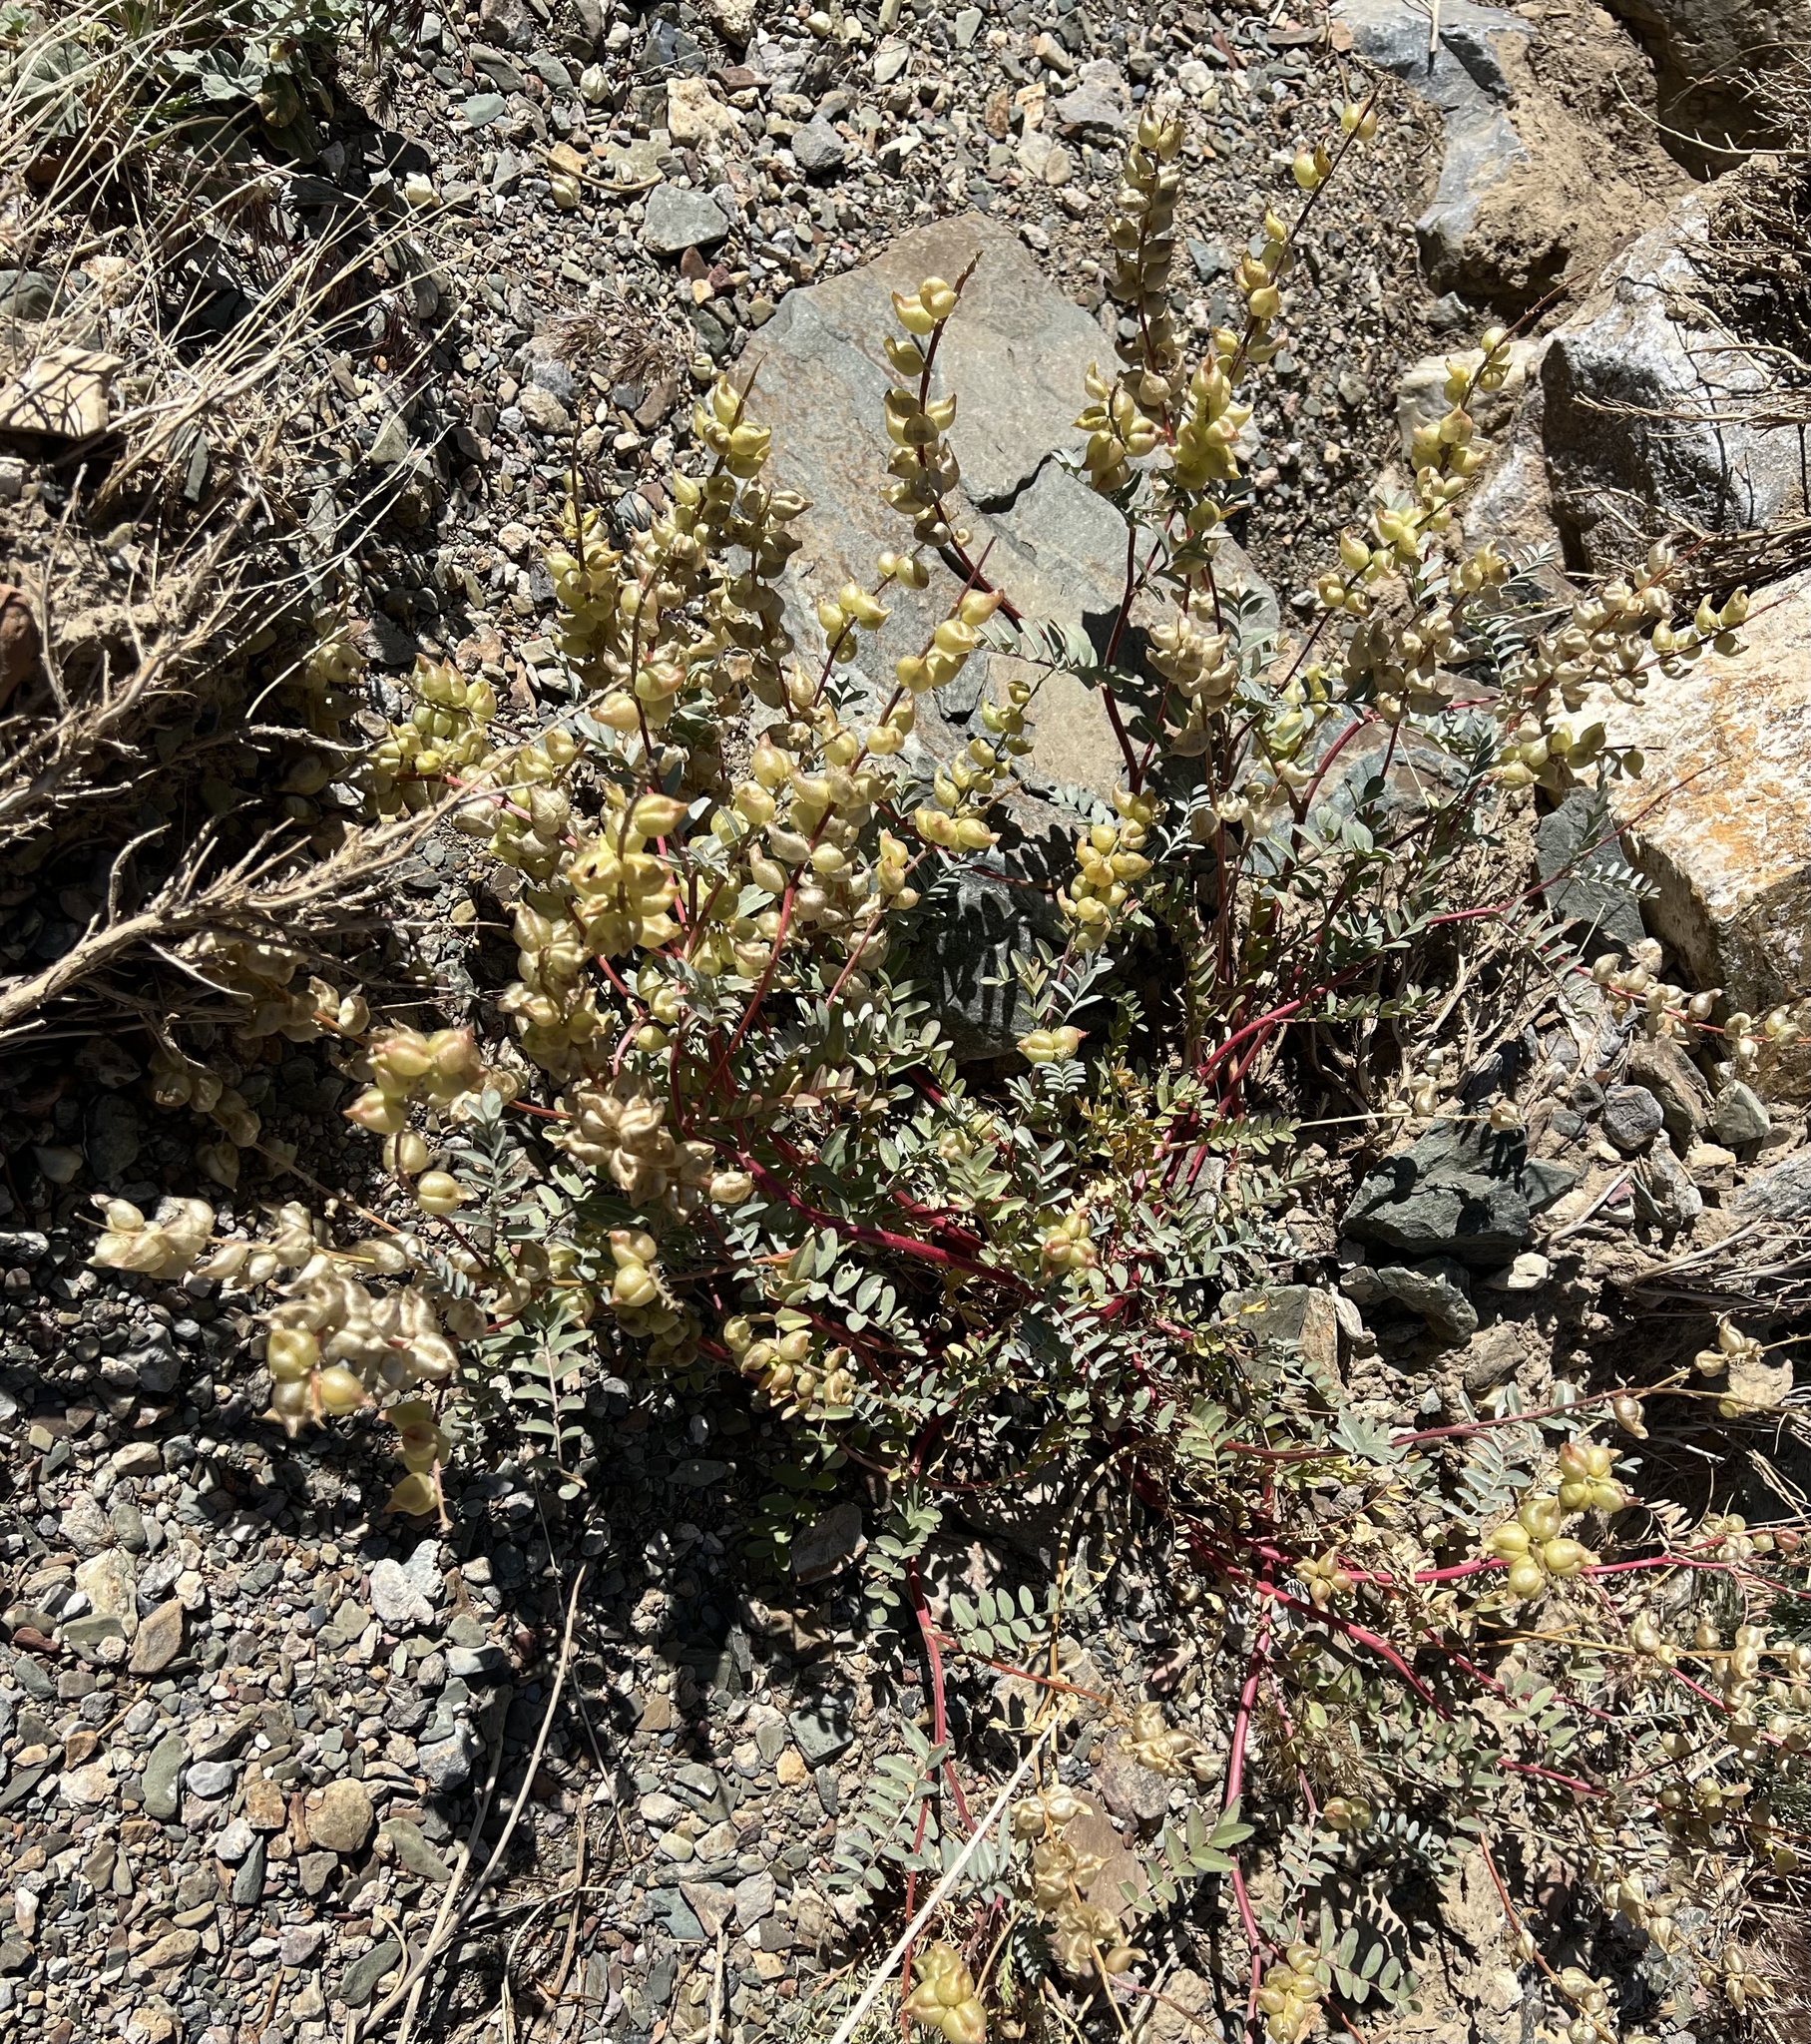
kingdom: Plantae
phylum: Tracheophyta
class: Magnoliopsida
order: Fabales
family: Fabaceae
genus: Astragalus
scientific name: Astragalus lentiginosus
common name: Freckled milkvetch
